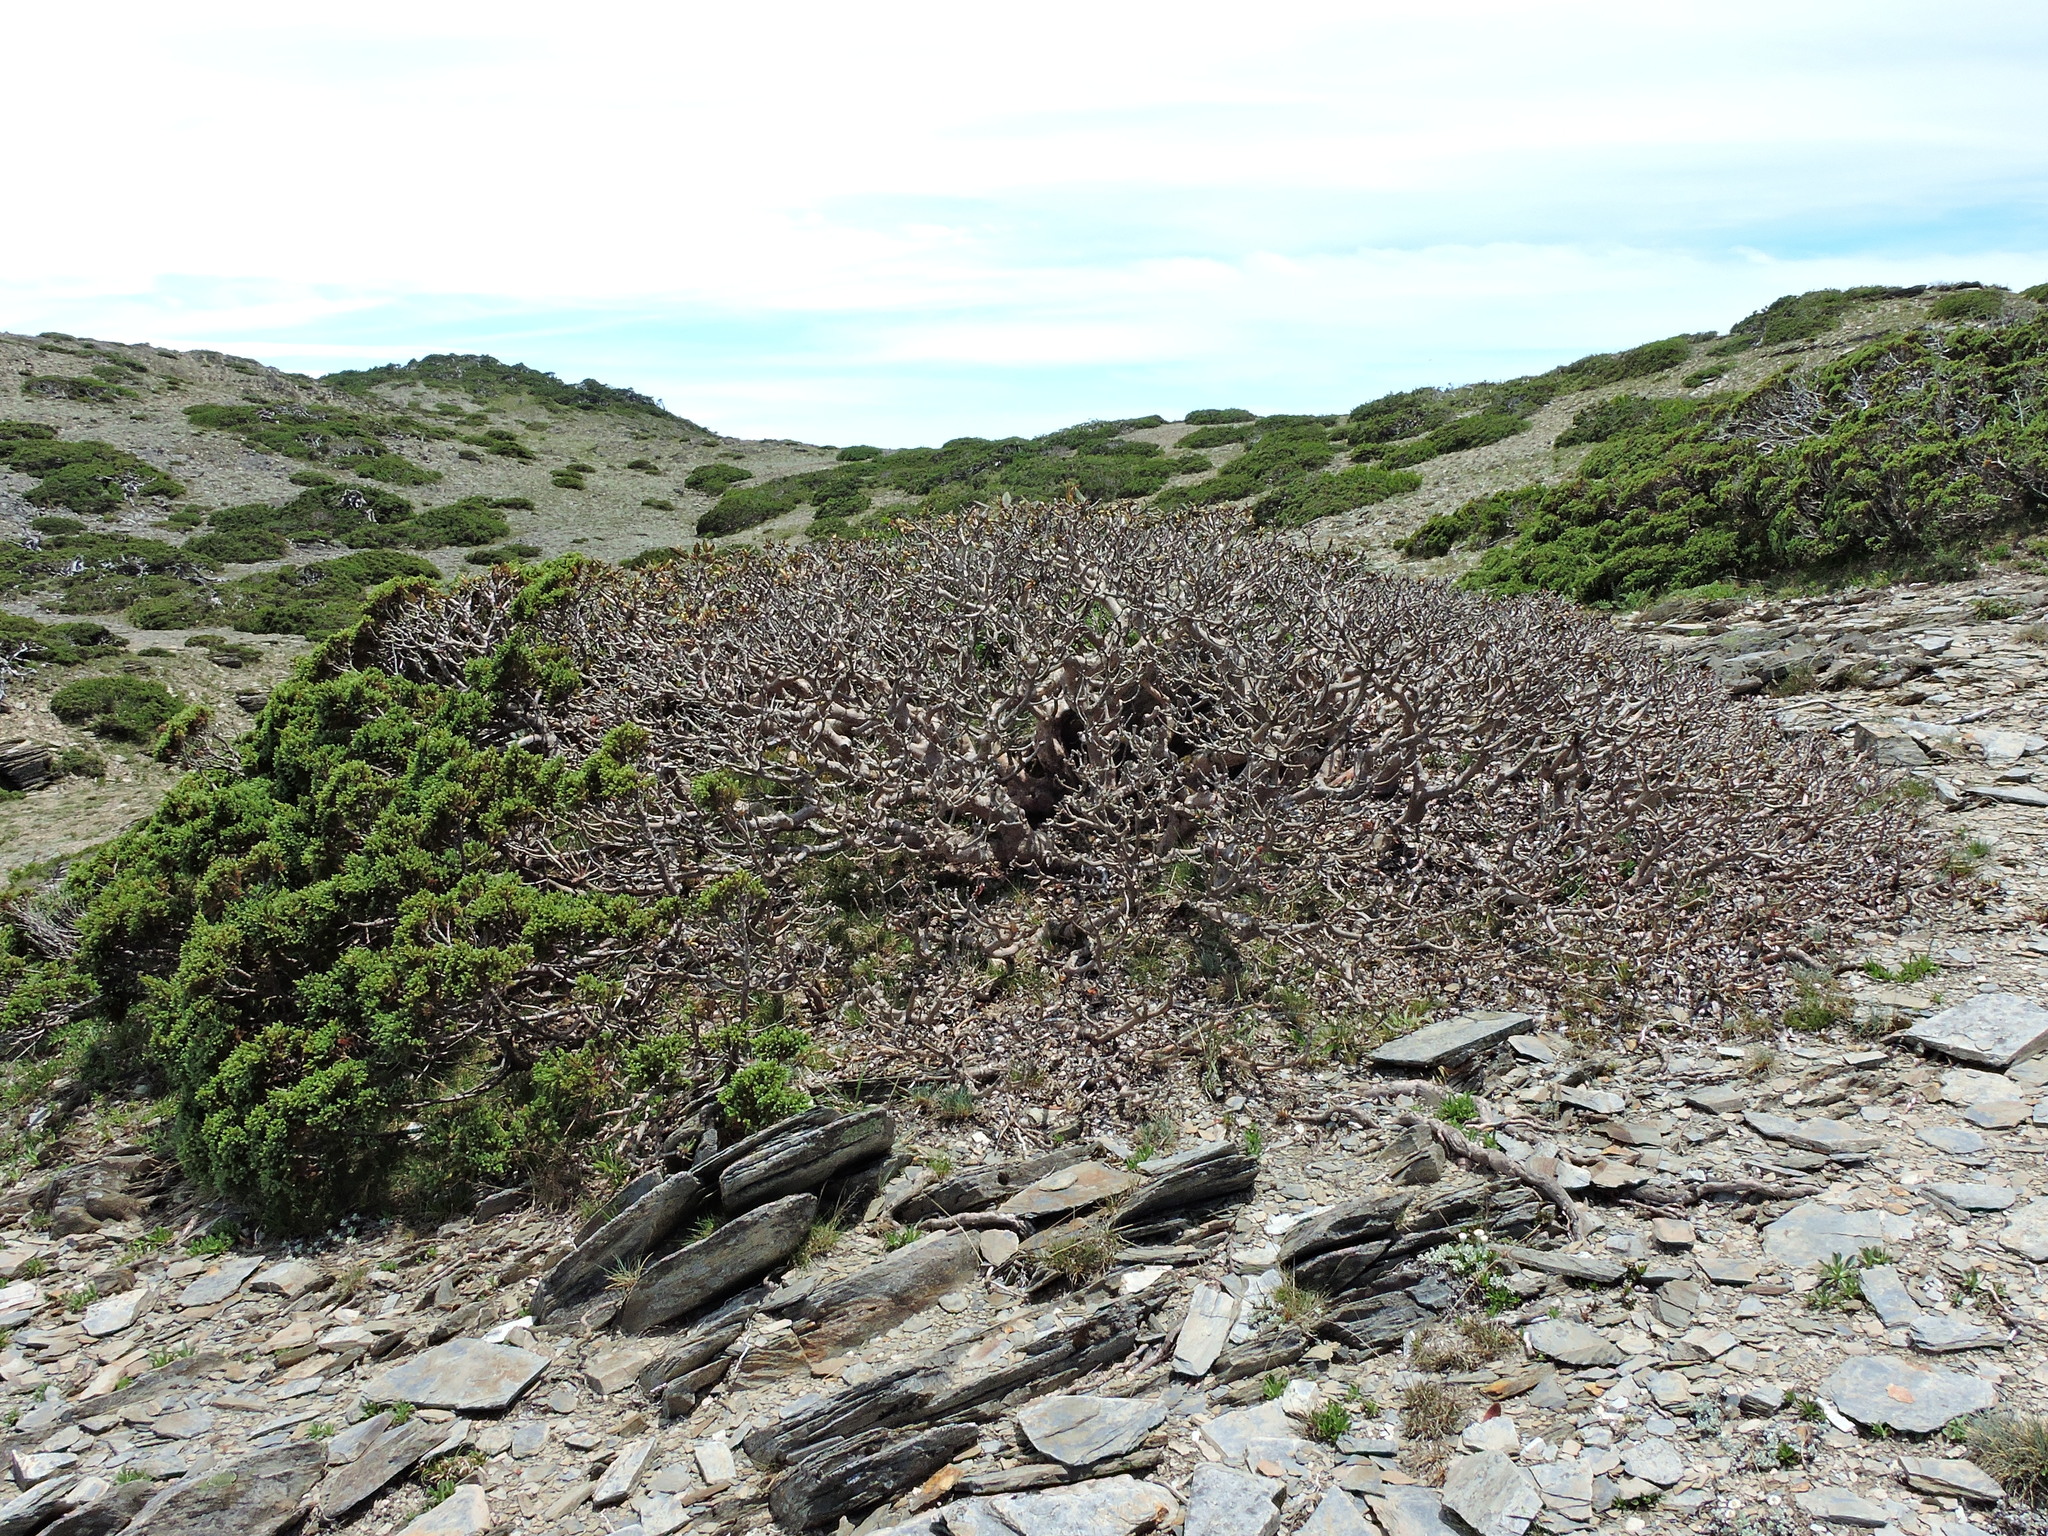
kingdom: Plantae
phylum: Tracheophyta
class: Magnoliopsida
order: Ericales
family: Ericaceae
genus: Rhododendron
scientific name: Rhododendron pseudochrysanthum
